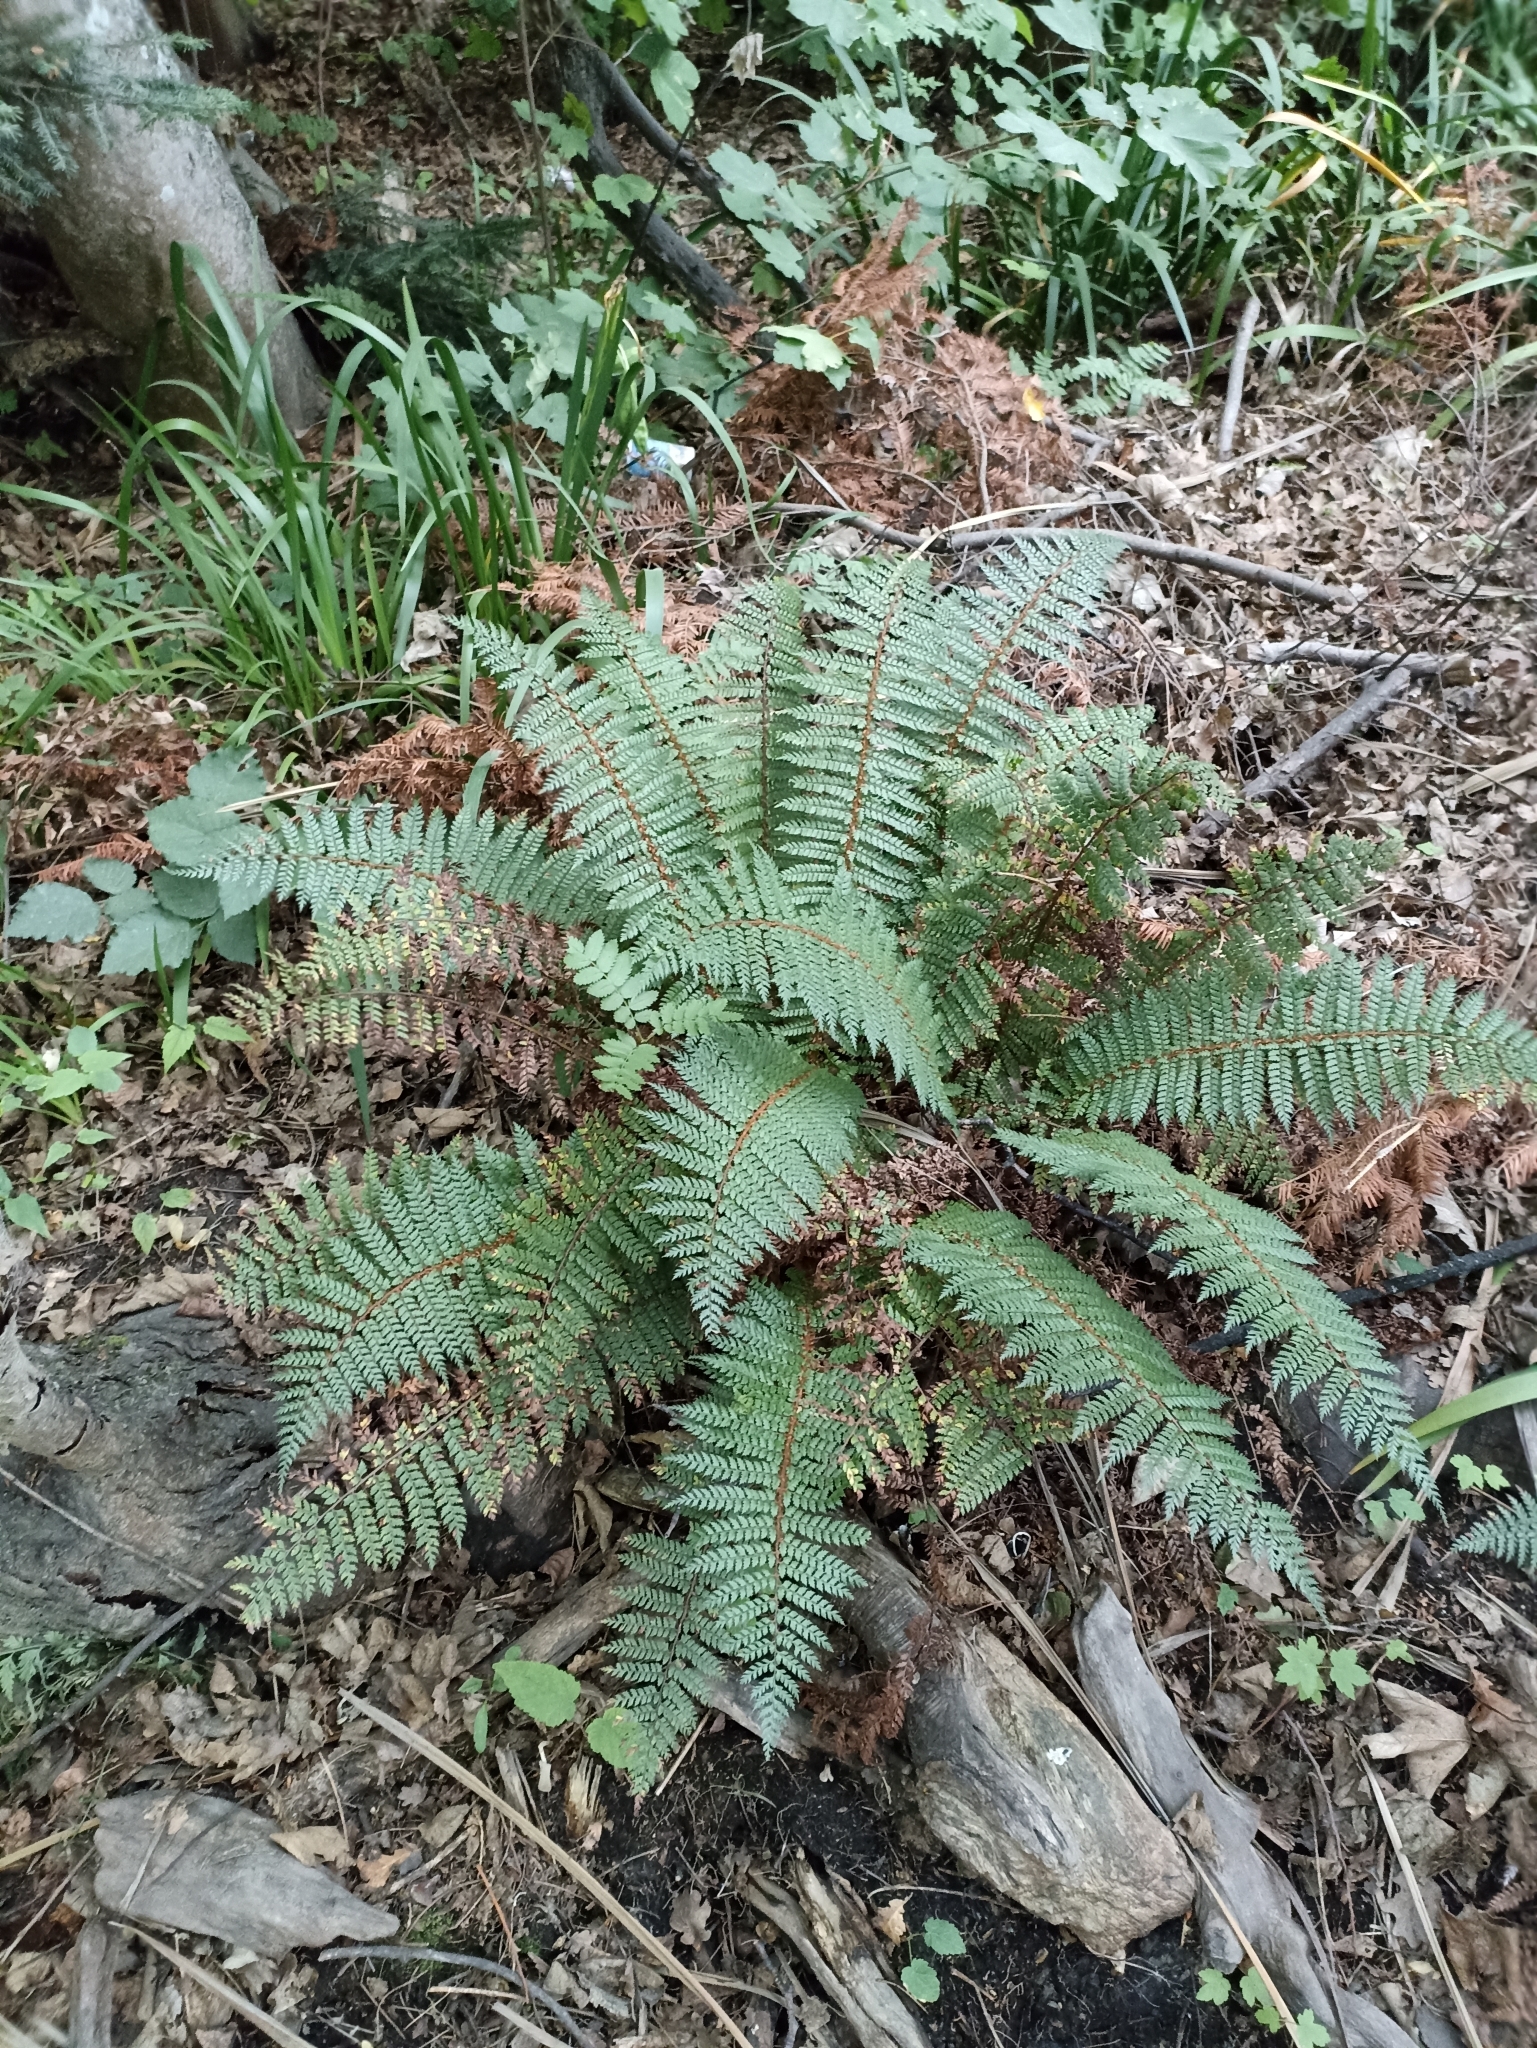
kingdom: Plantae
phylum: Tracheophyta
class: Polypodiopsida
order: Polypodiales
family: Dryopteridaceae
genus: Polystichum
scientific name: Polystichum vestitum
